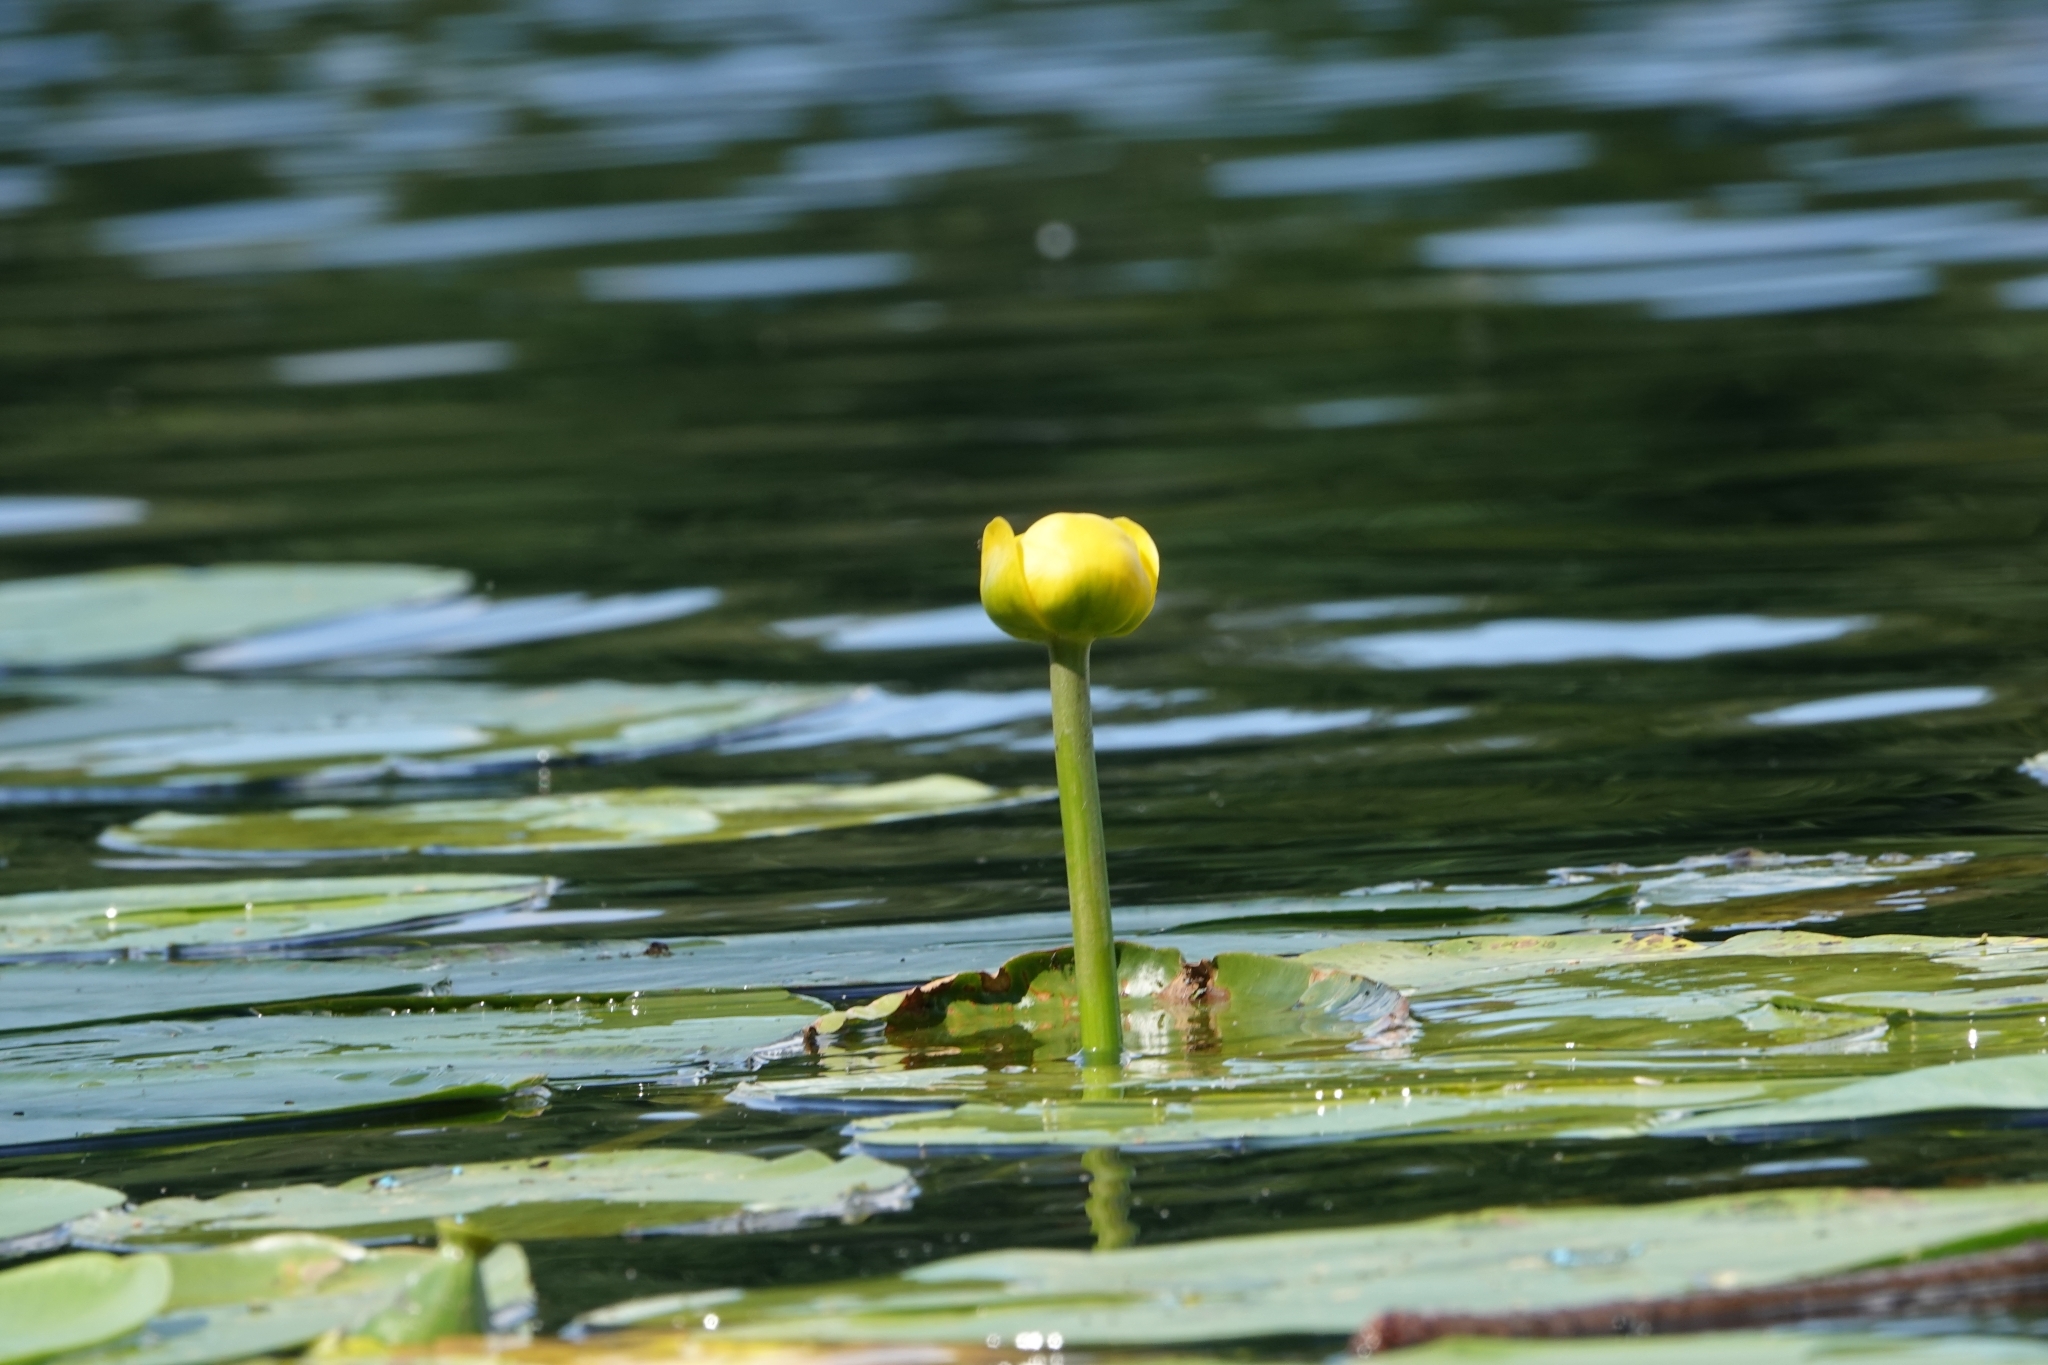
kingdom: Plantae
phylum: Tracheophyta
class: Magnoliopsida
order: Nymphaeales
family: Nymphaeaceae
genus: Nuphar
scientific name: Nuphar lutea
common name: Yellow water-lily
